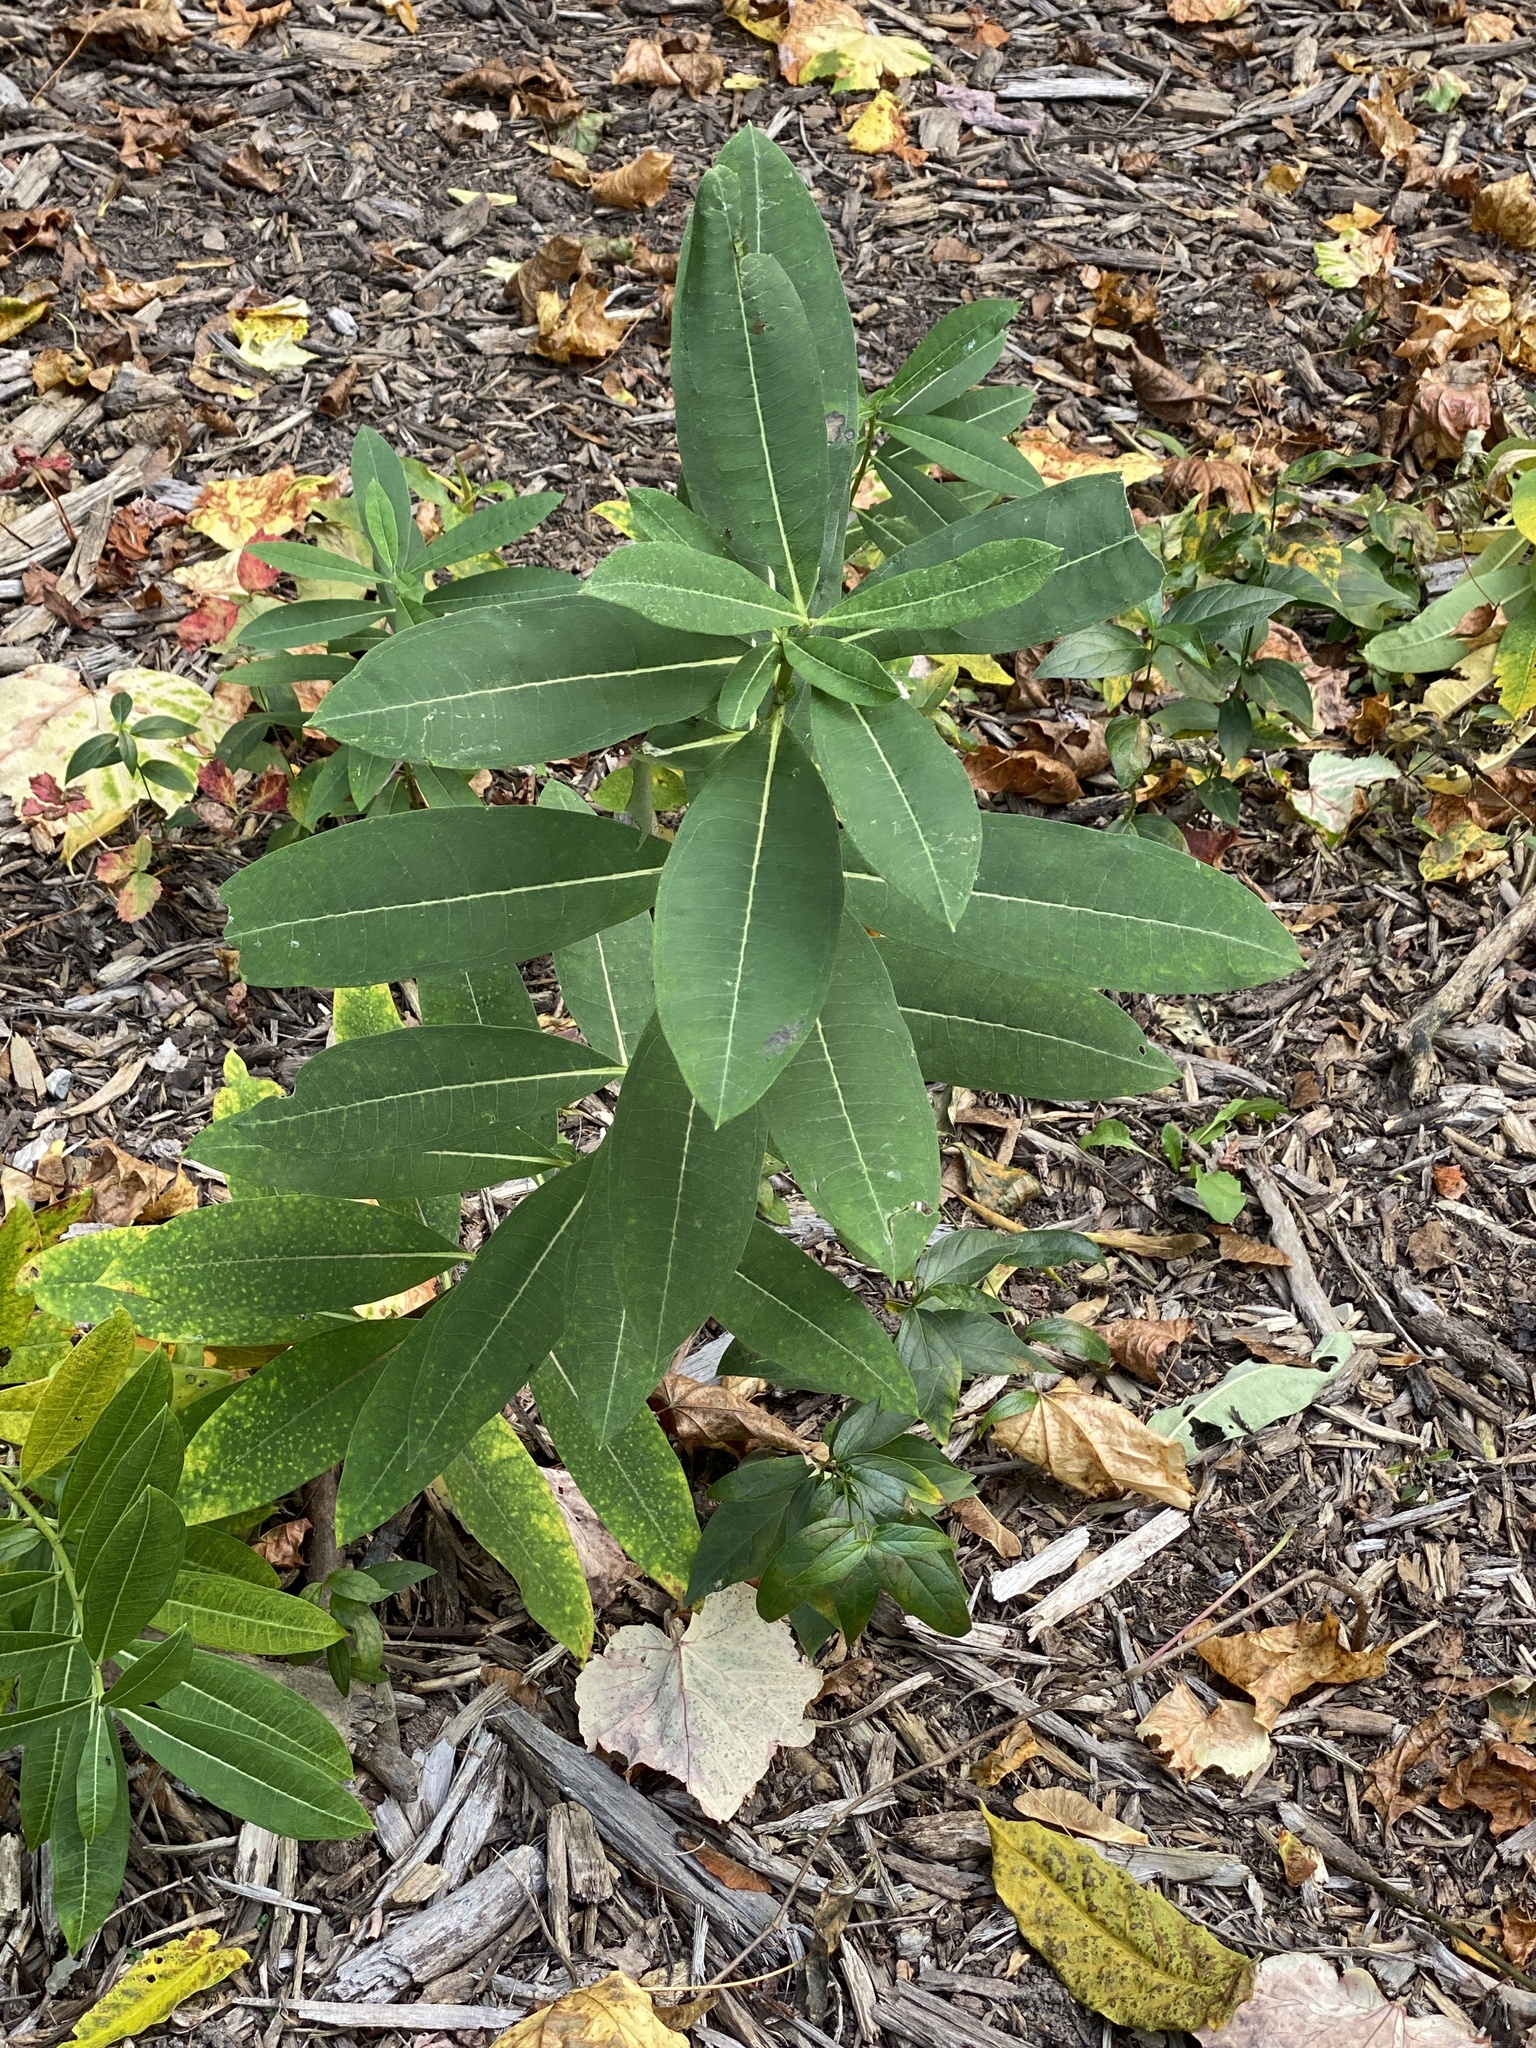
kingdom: Plantae
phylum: Tracheophyta
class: Magnoliopsida
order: Gentianales
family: Apocynaceae
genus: Asclepias
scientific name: Asclepias syriaca
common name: Common milkweed
